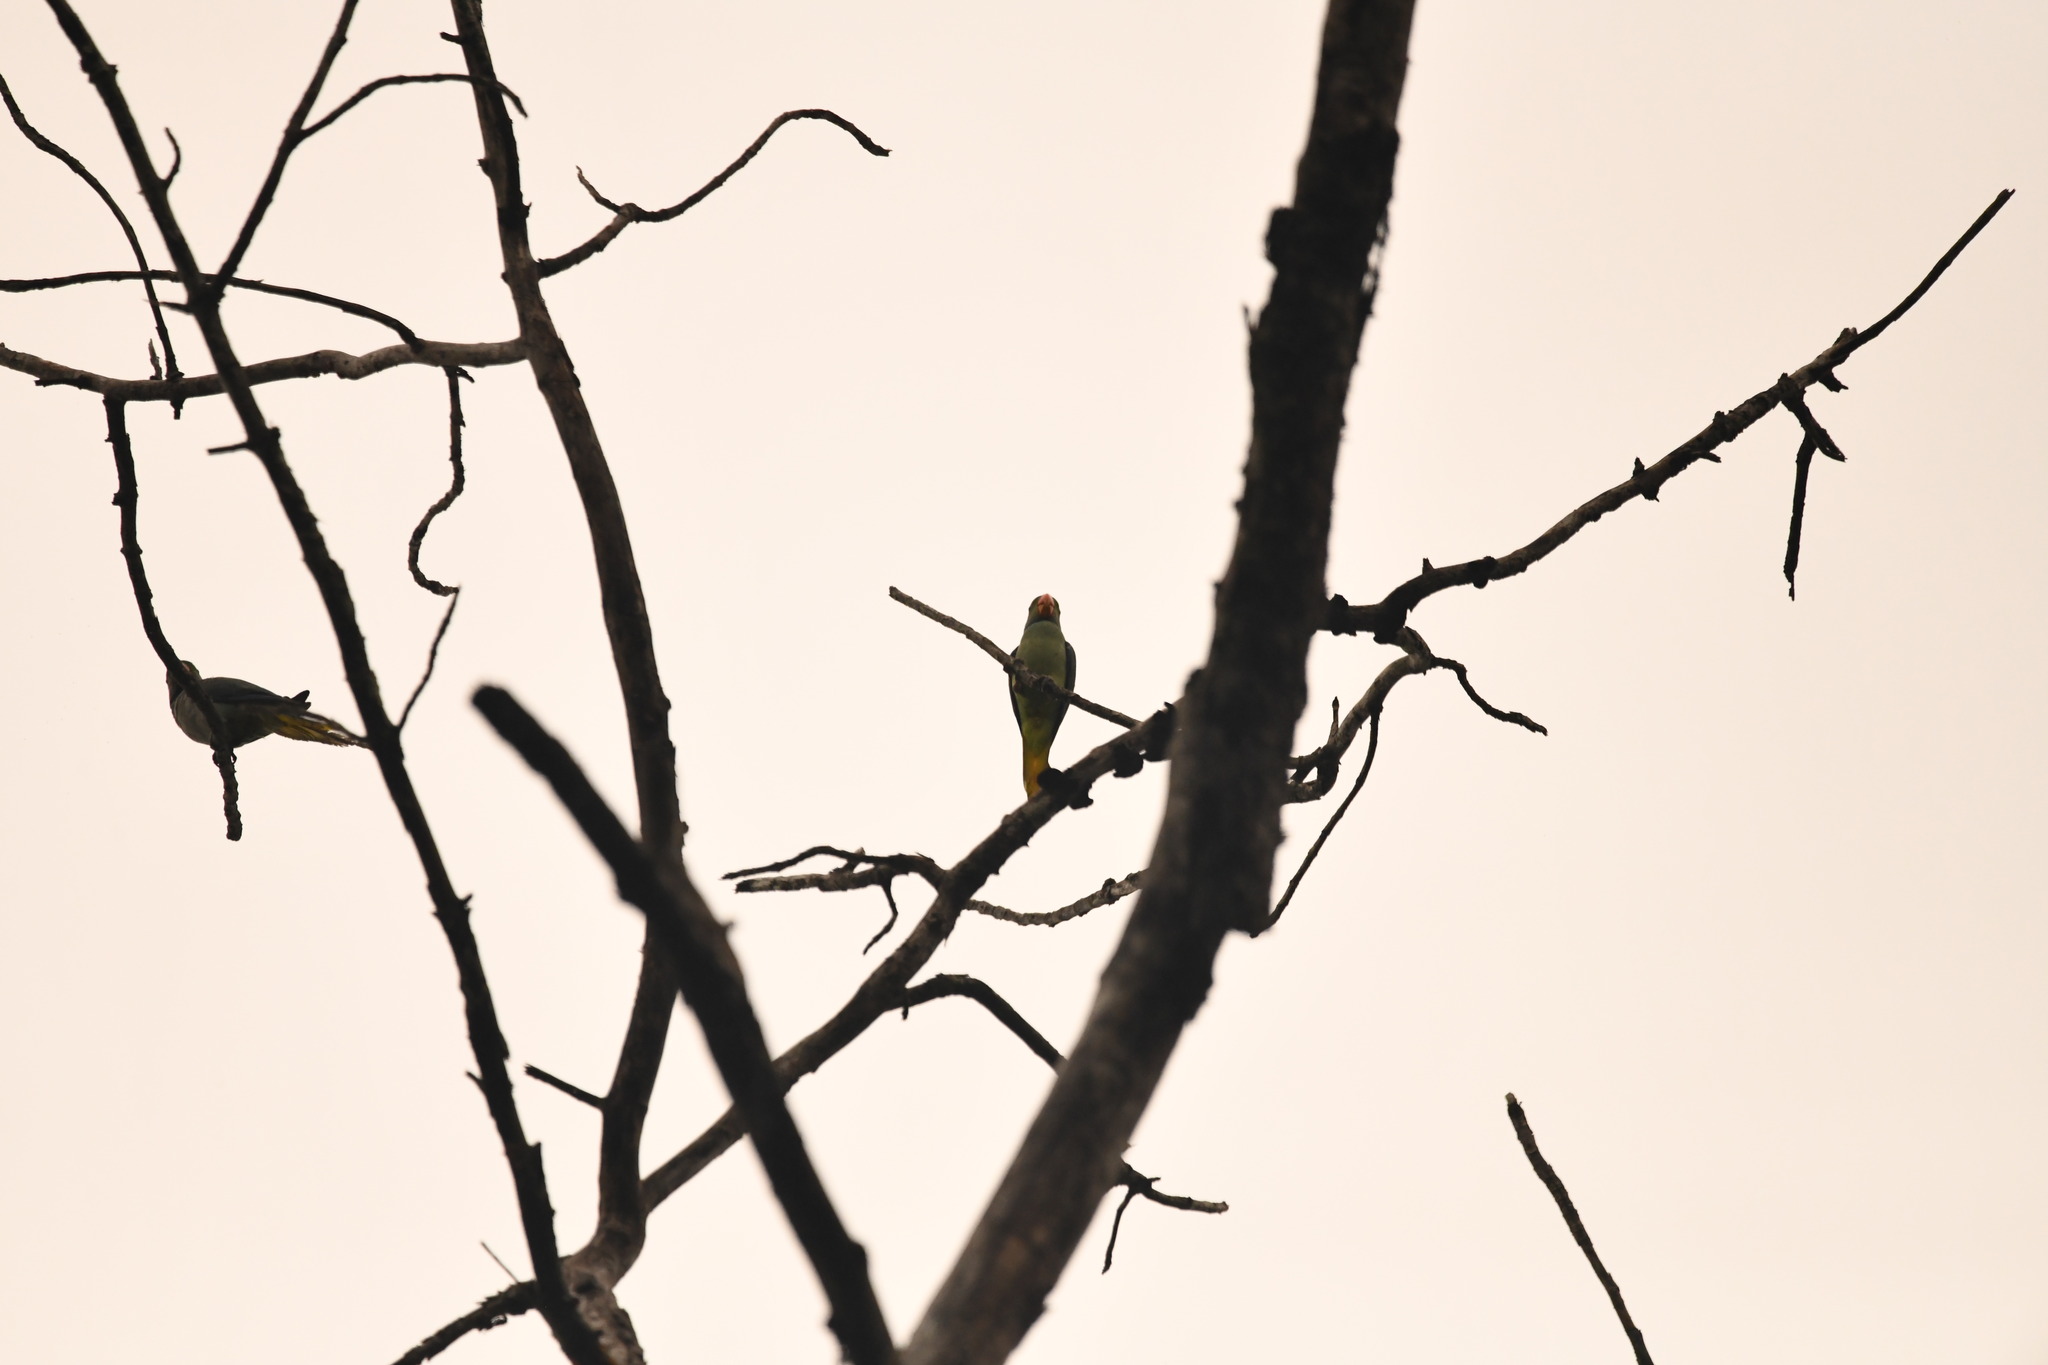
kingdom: Animalia
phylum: Chordata
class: Aves
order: Psittaciformes
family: Psittacidae
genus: Psittacula
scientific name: Psittacula columboides
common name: Blue-winged parakeet
